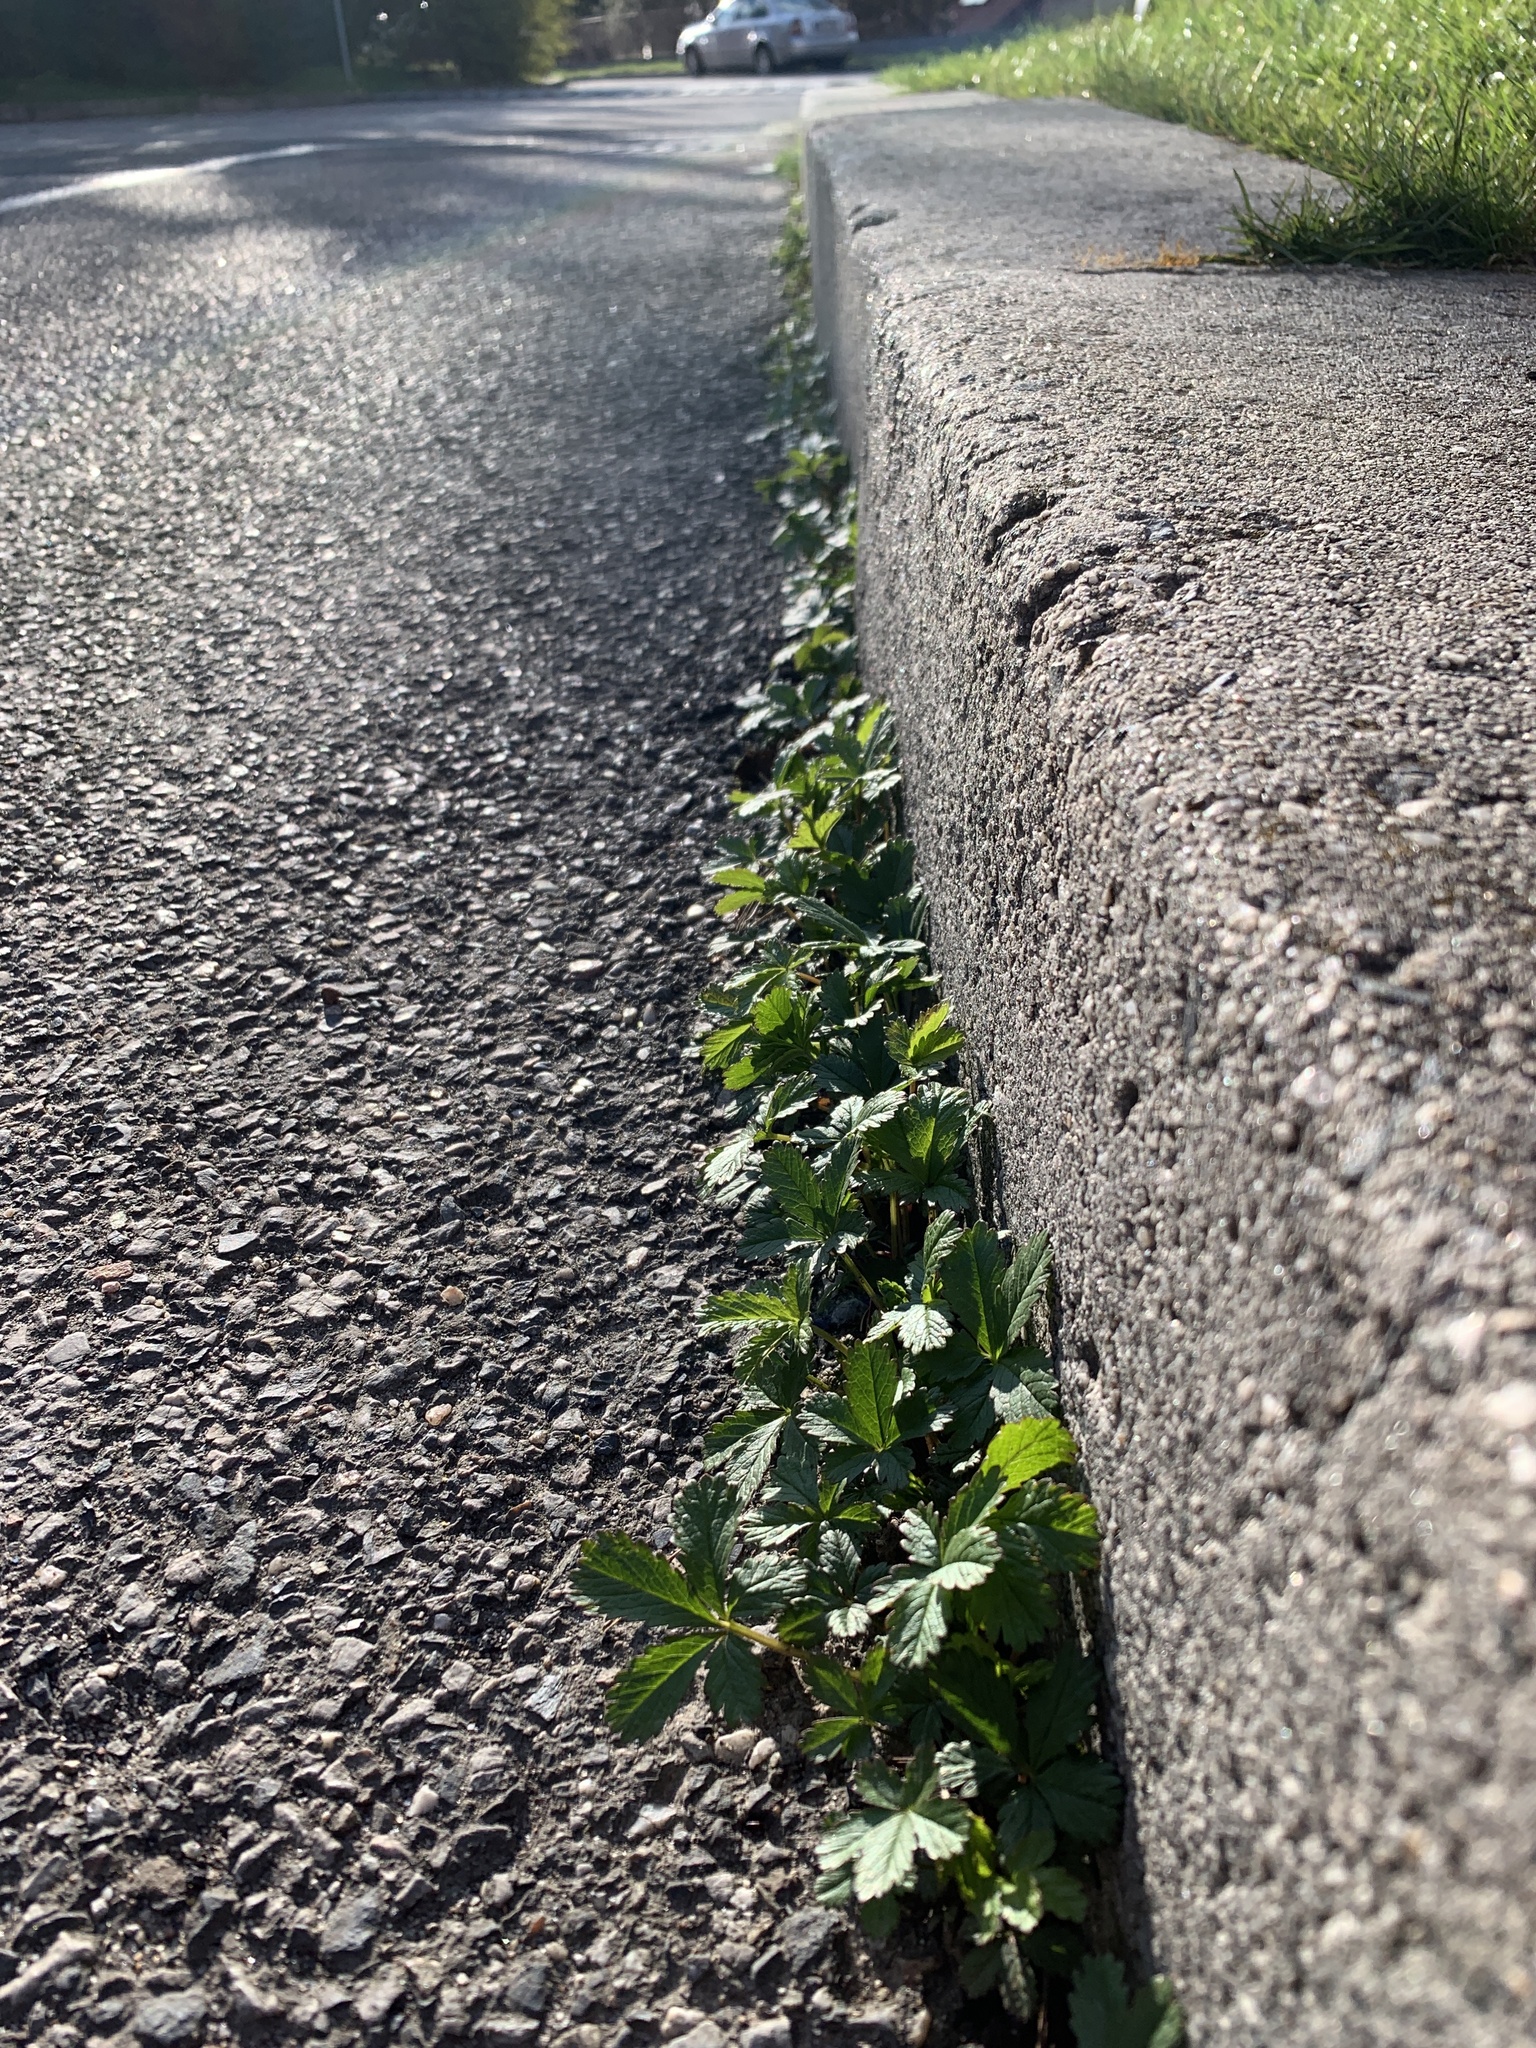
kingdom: Plantae
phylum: Tracheophyta
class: Magnoliopsida
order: Rosales
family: Rosaceae
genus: Potentilla
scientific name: Potentilla reptans
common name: Creeping cinquefoil
